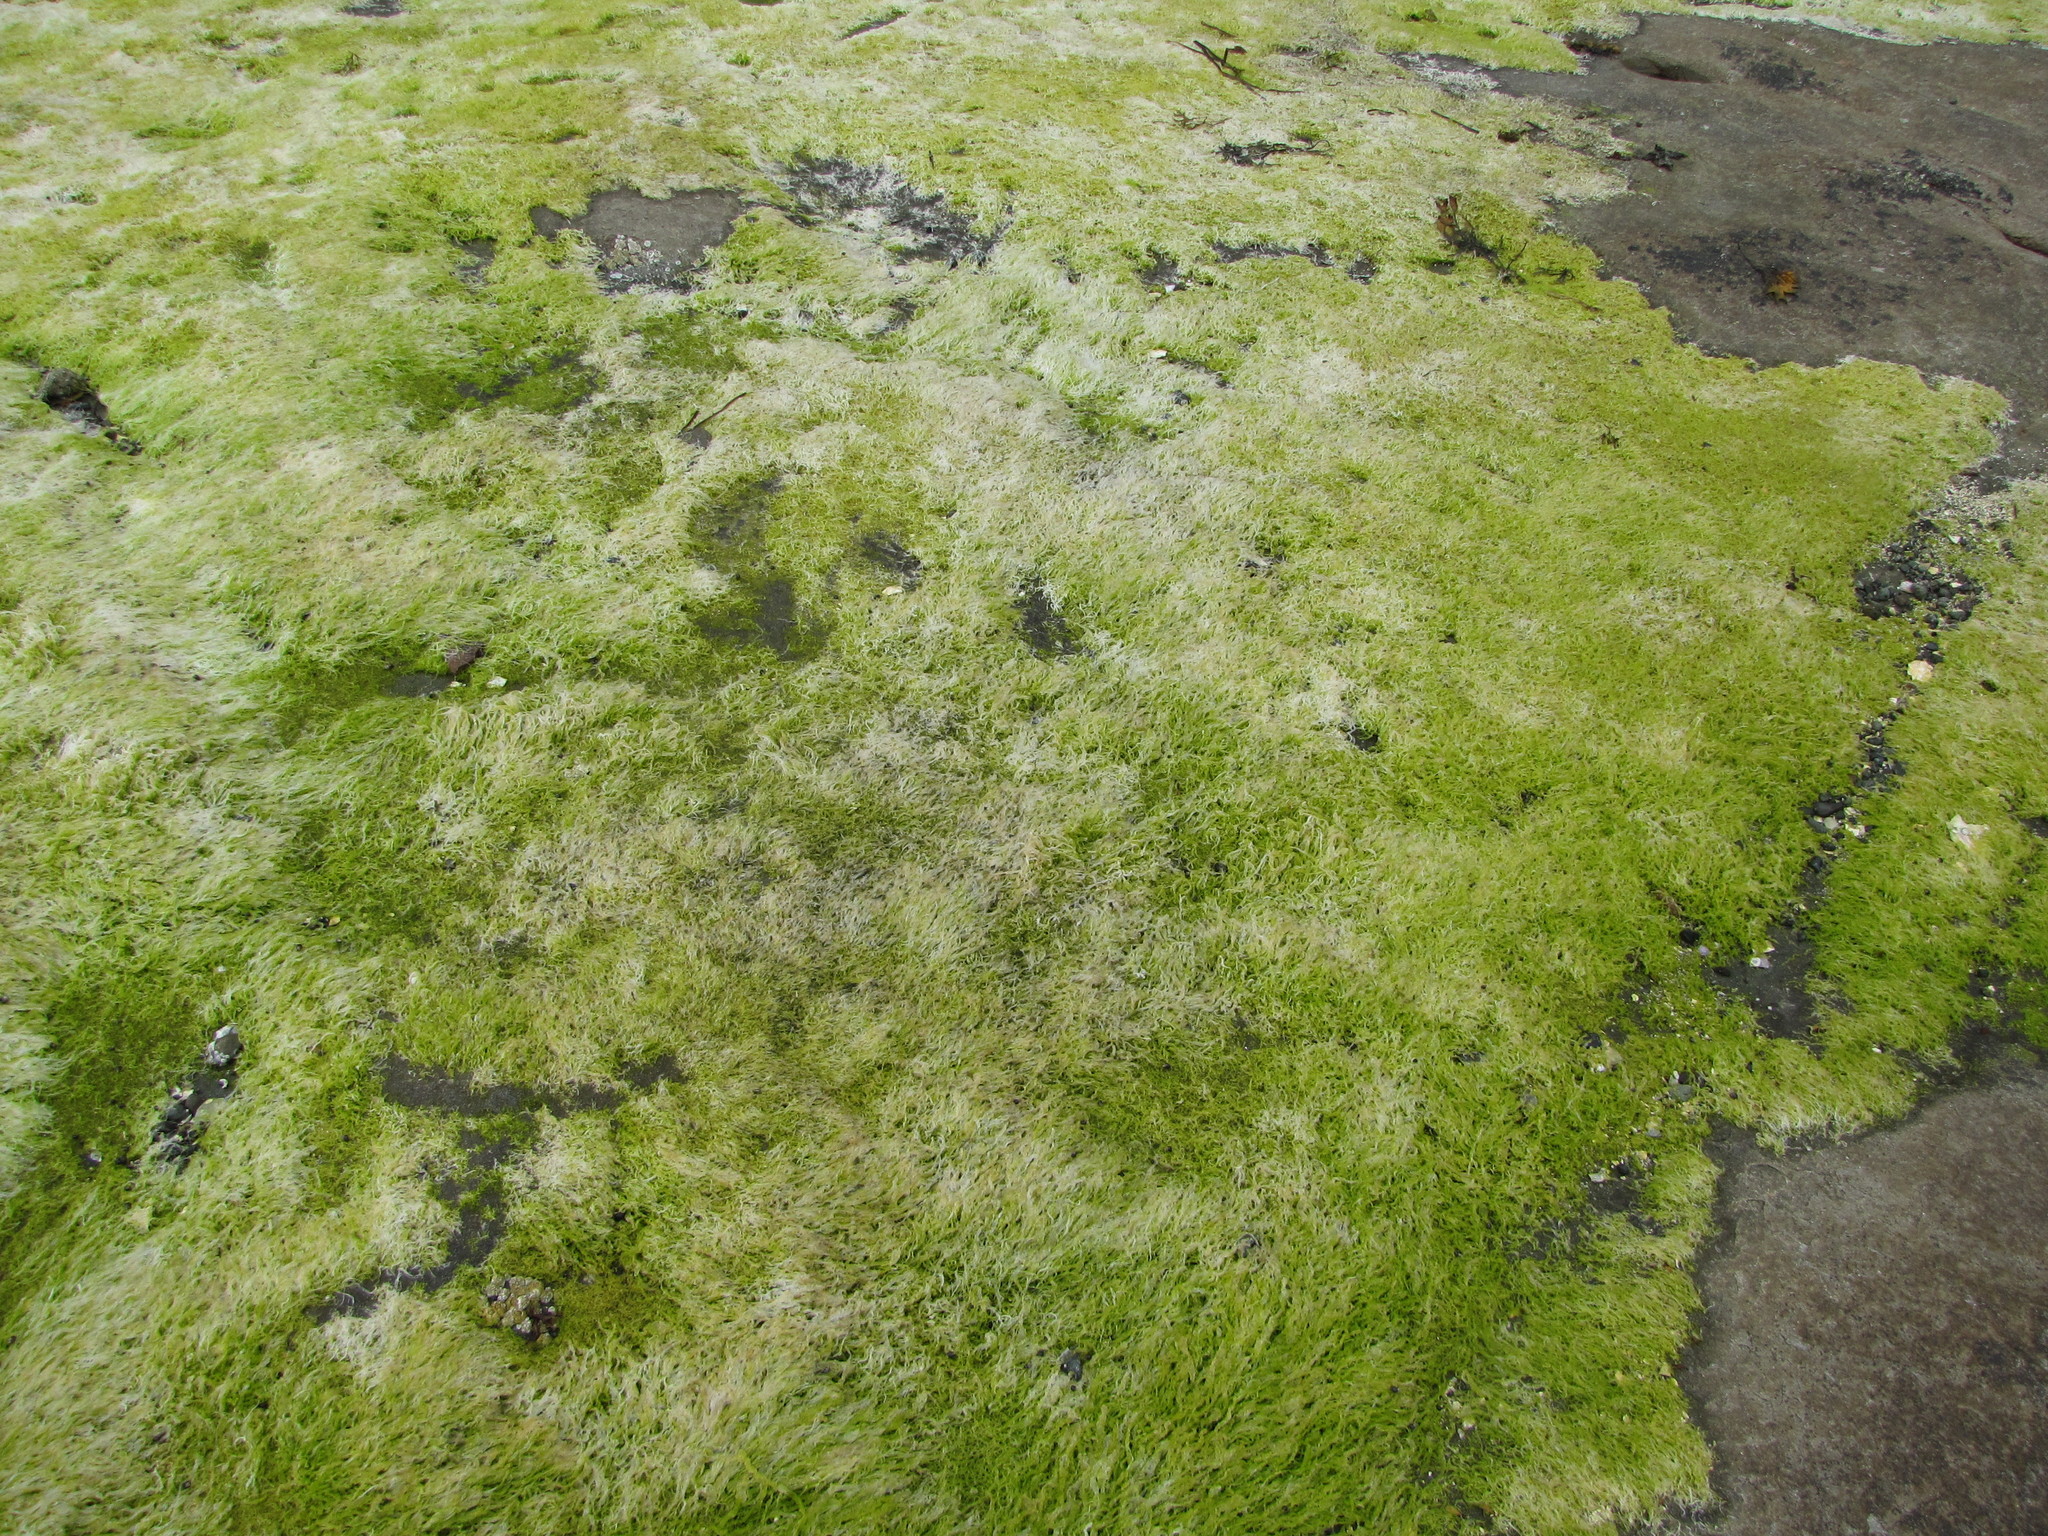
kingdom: Plantae
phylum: Chlorophyta
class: Ulvophyceae
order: Ulvales
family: Ulvaceae
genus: Ulva
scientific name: Ulva intestinalis
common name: Gut weed
